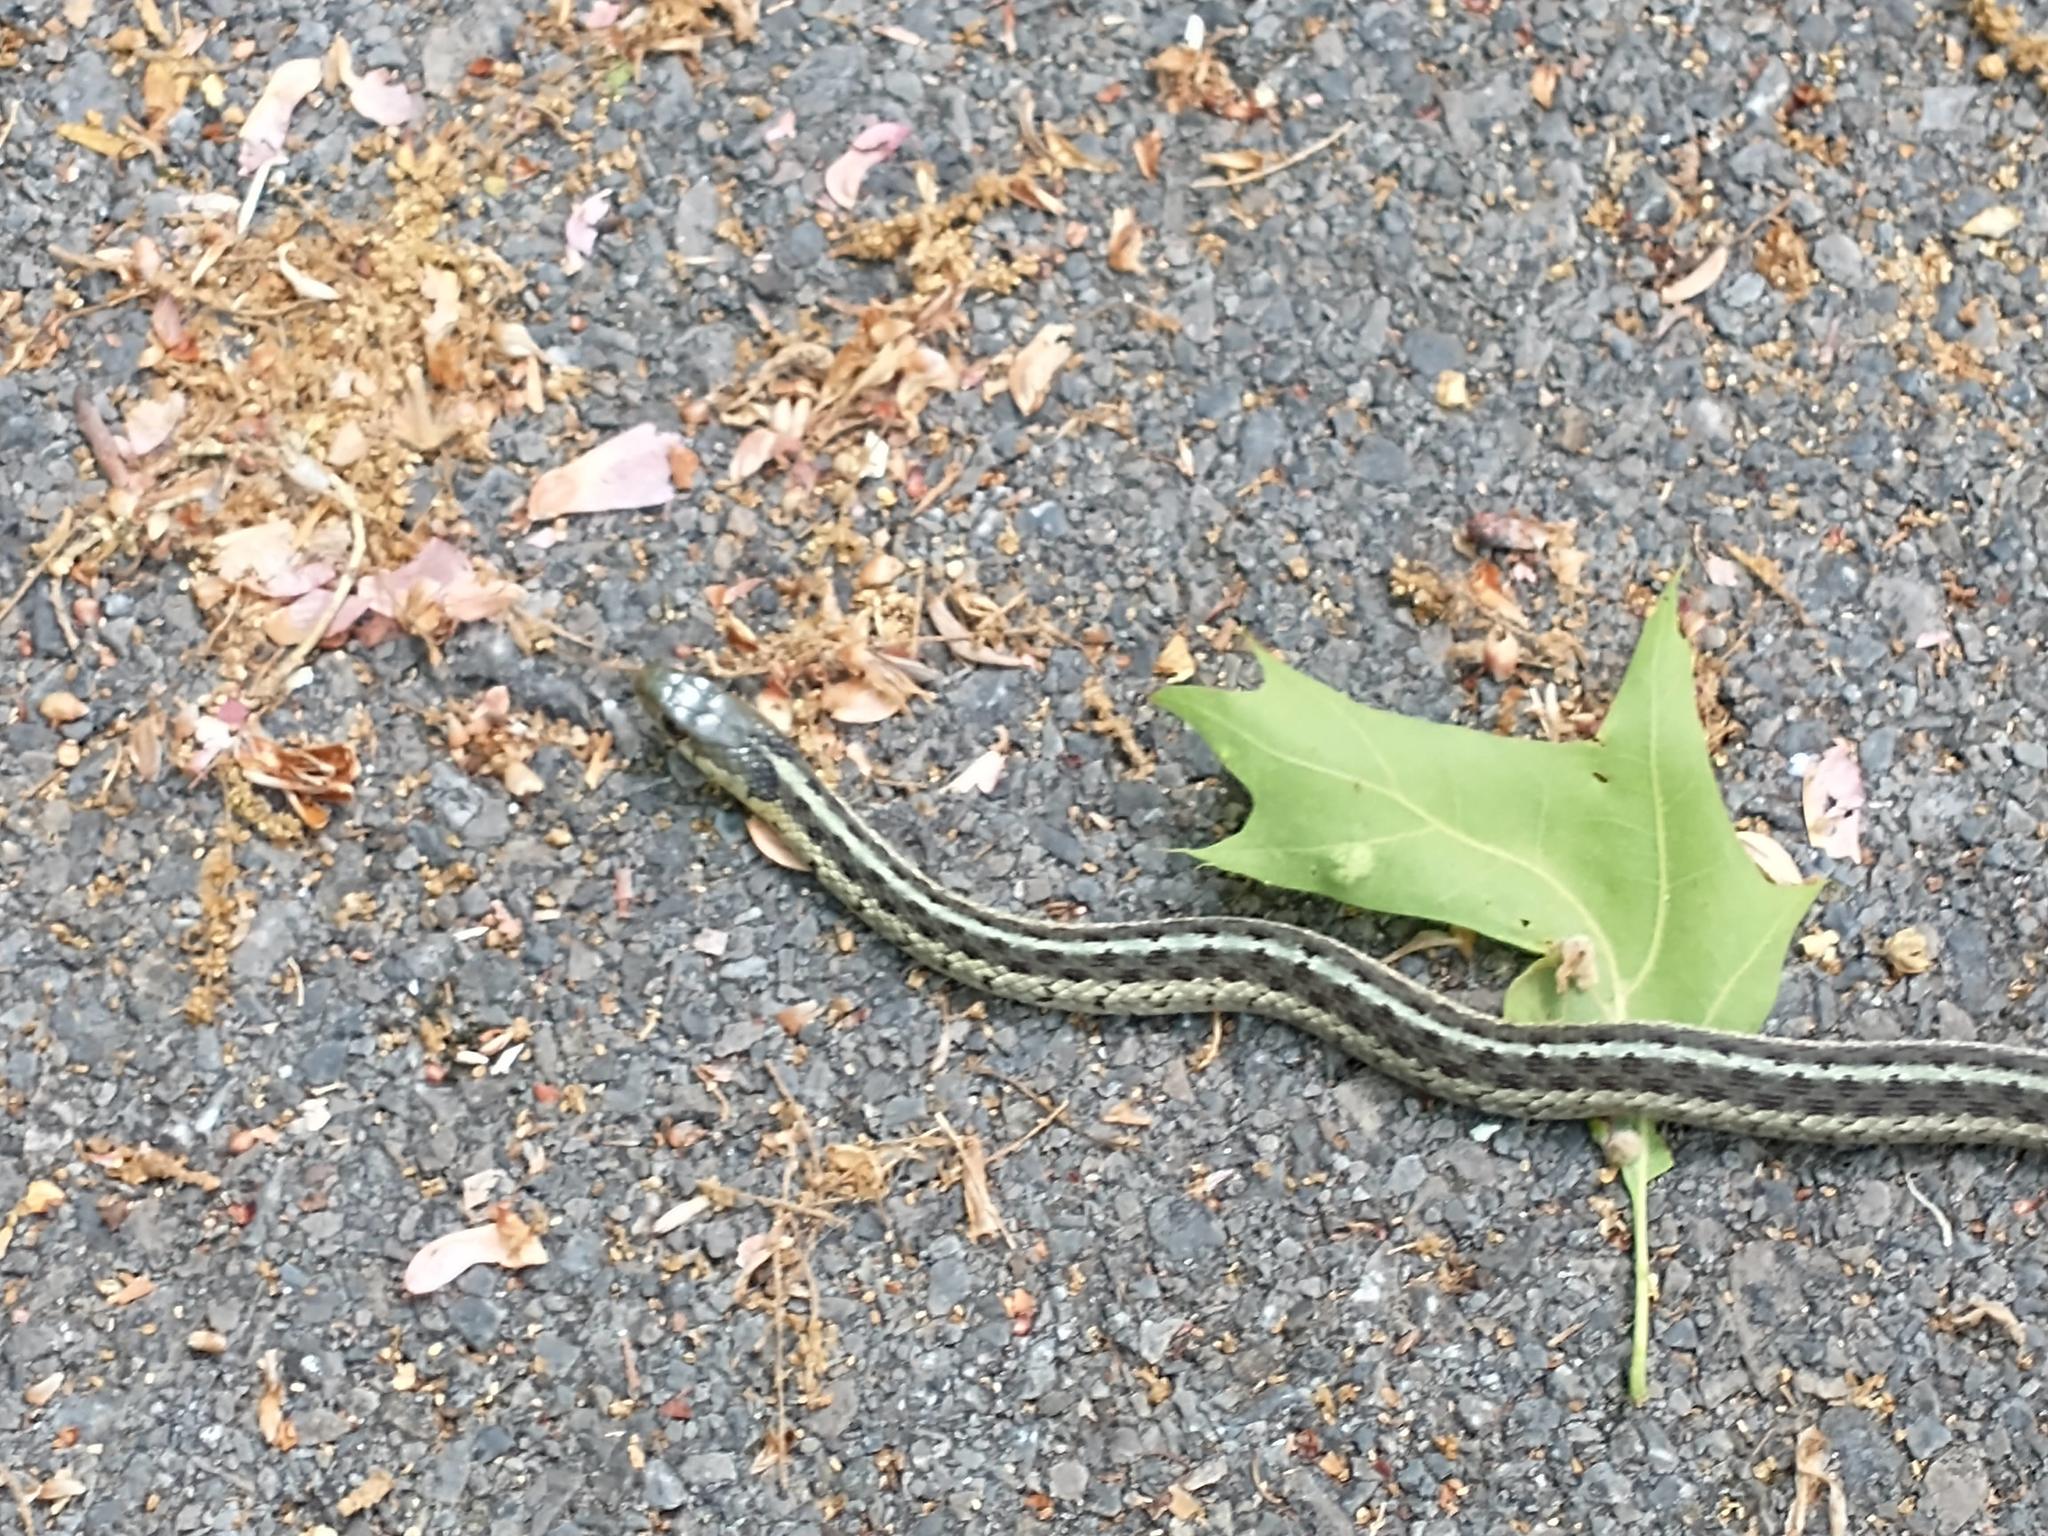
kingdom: Animalia
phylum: Chordata
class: Squamata
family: Colubridae
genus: Thamnophis
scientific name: Thamnophis sirtalis
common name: Common garter snake
